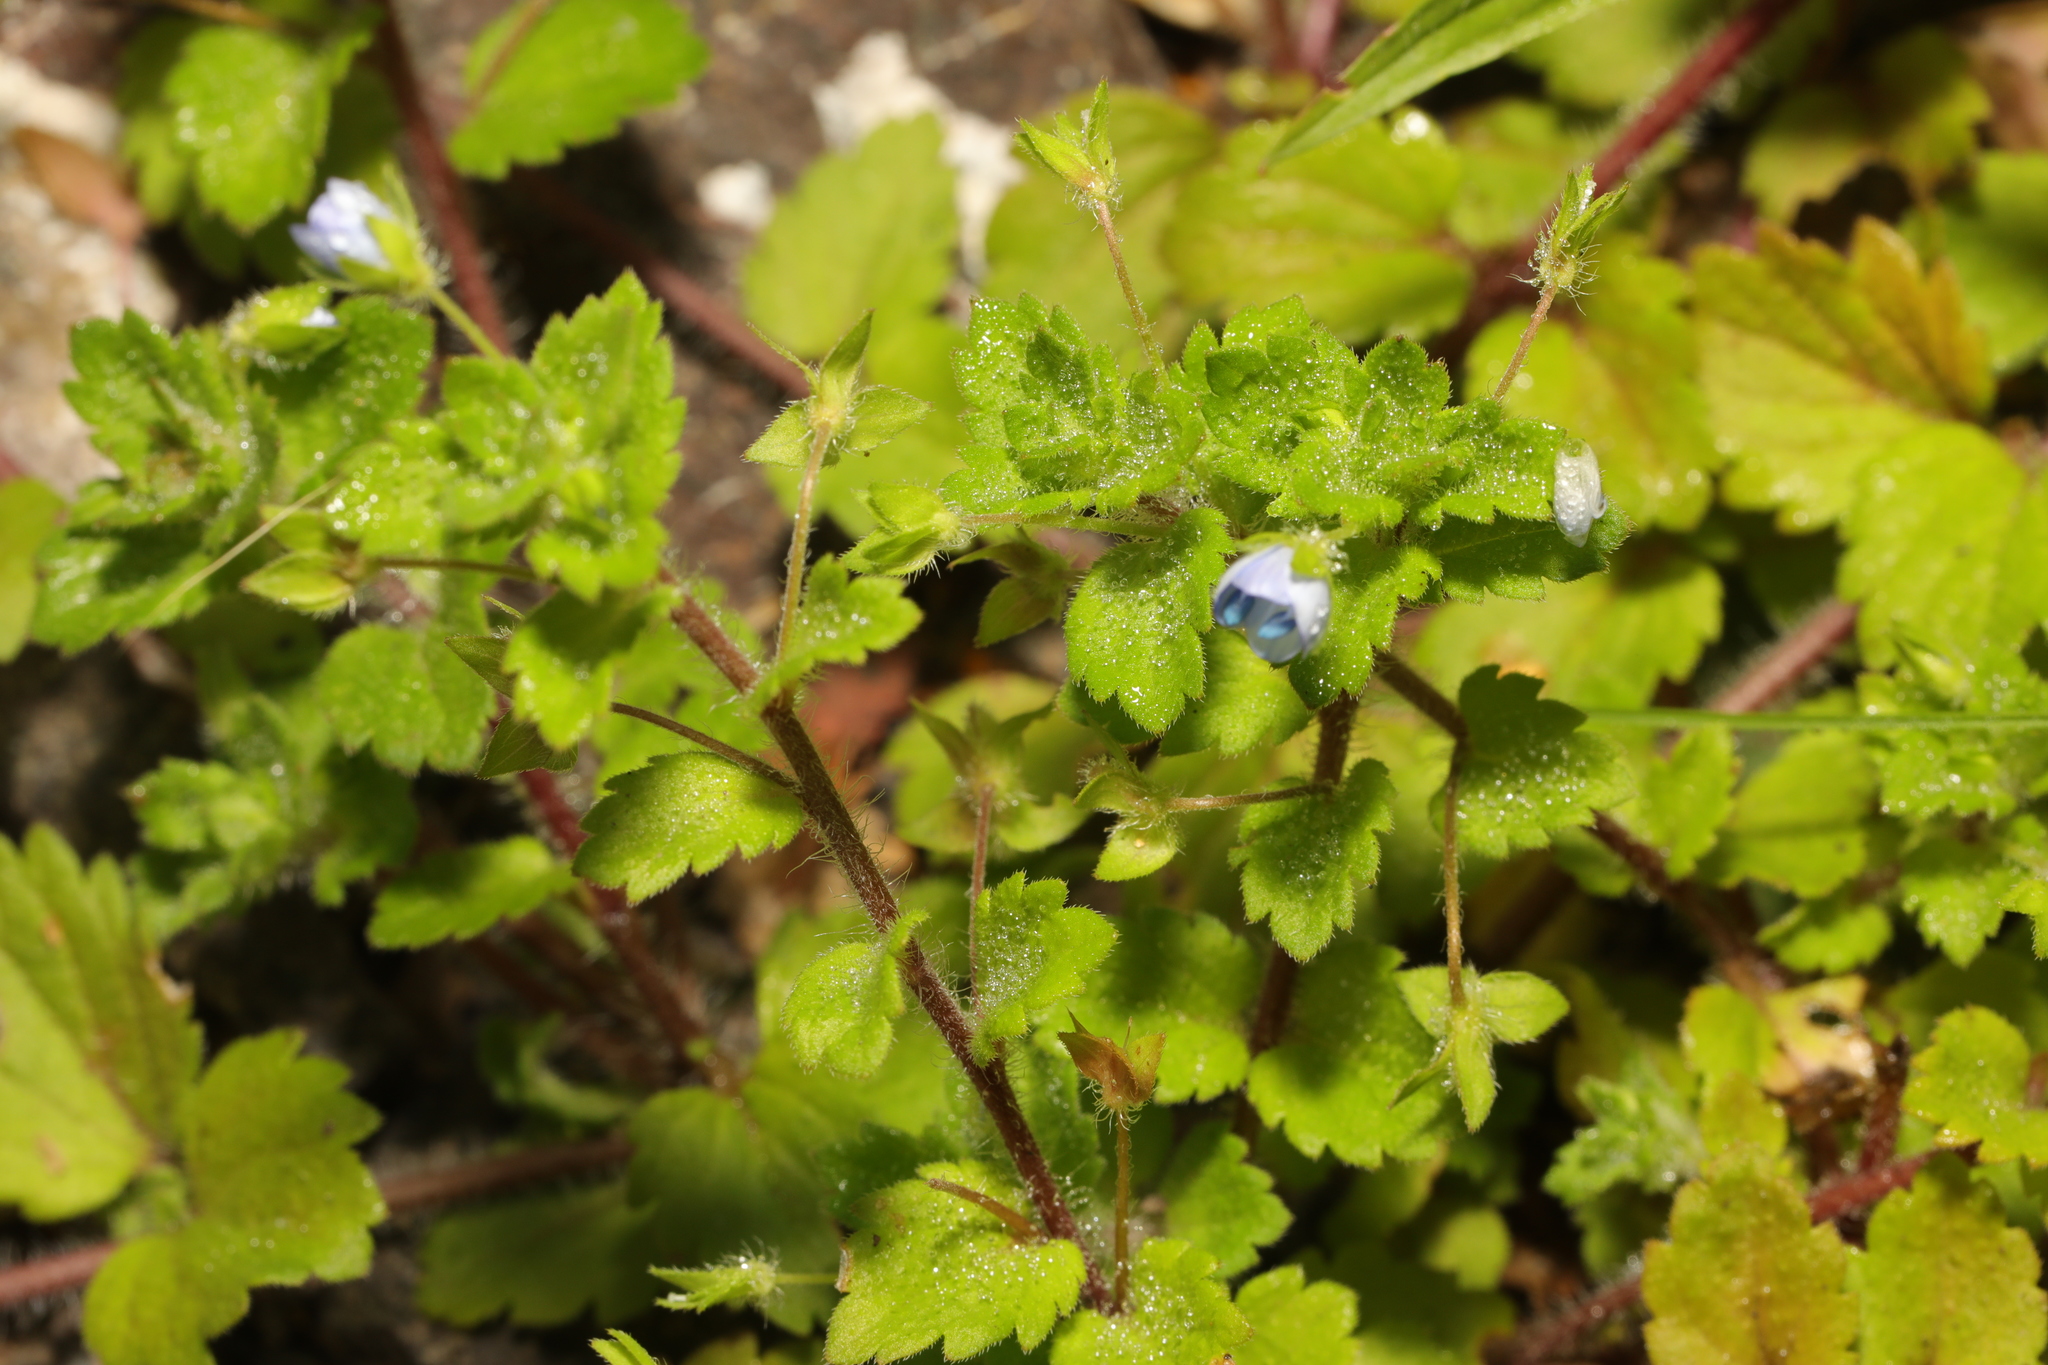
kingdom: Plantae
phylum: Tracheophyta
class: Magnoliopsida
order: Lamiales
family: Plantaginaceae
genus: Veronica
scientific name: Veronica persica
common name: Common field-speedwell
